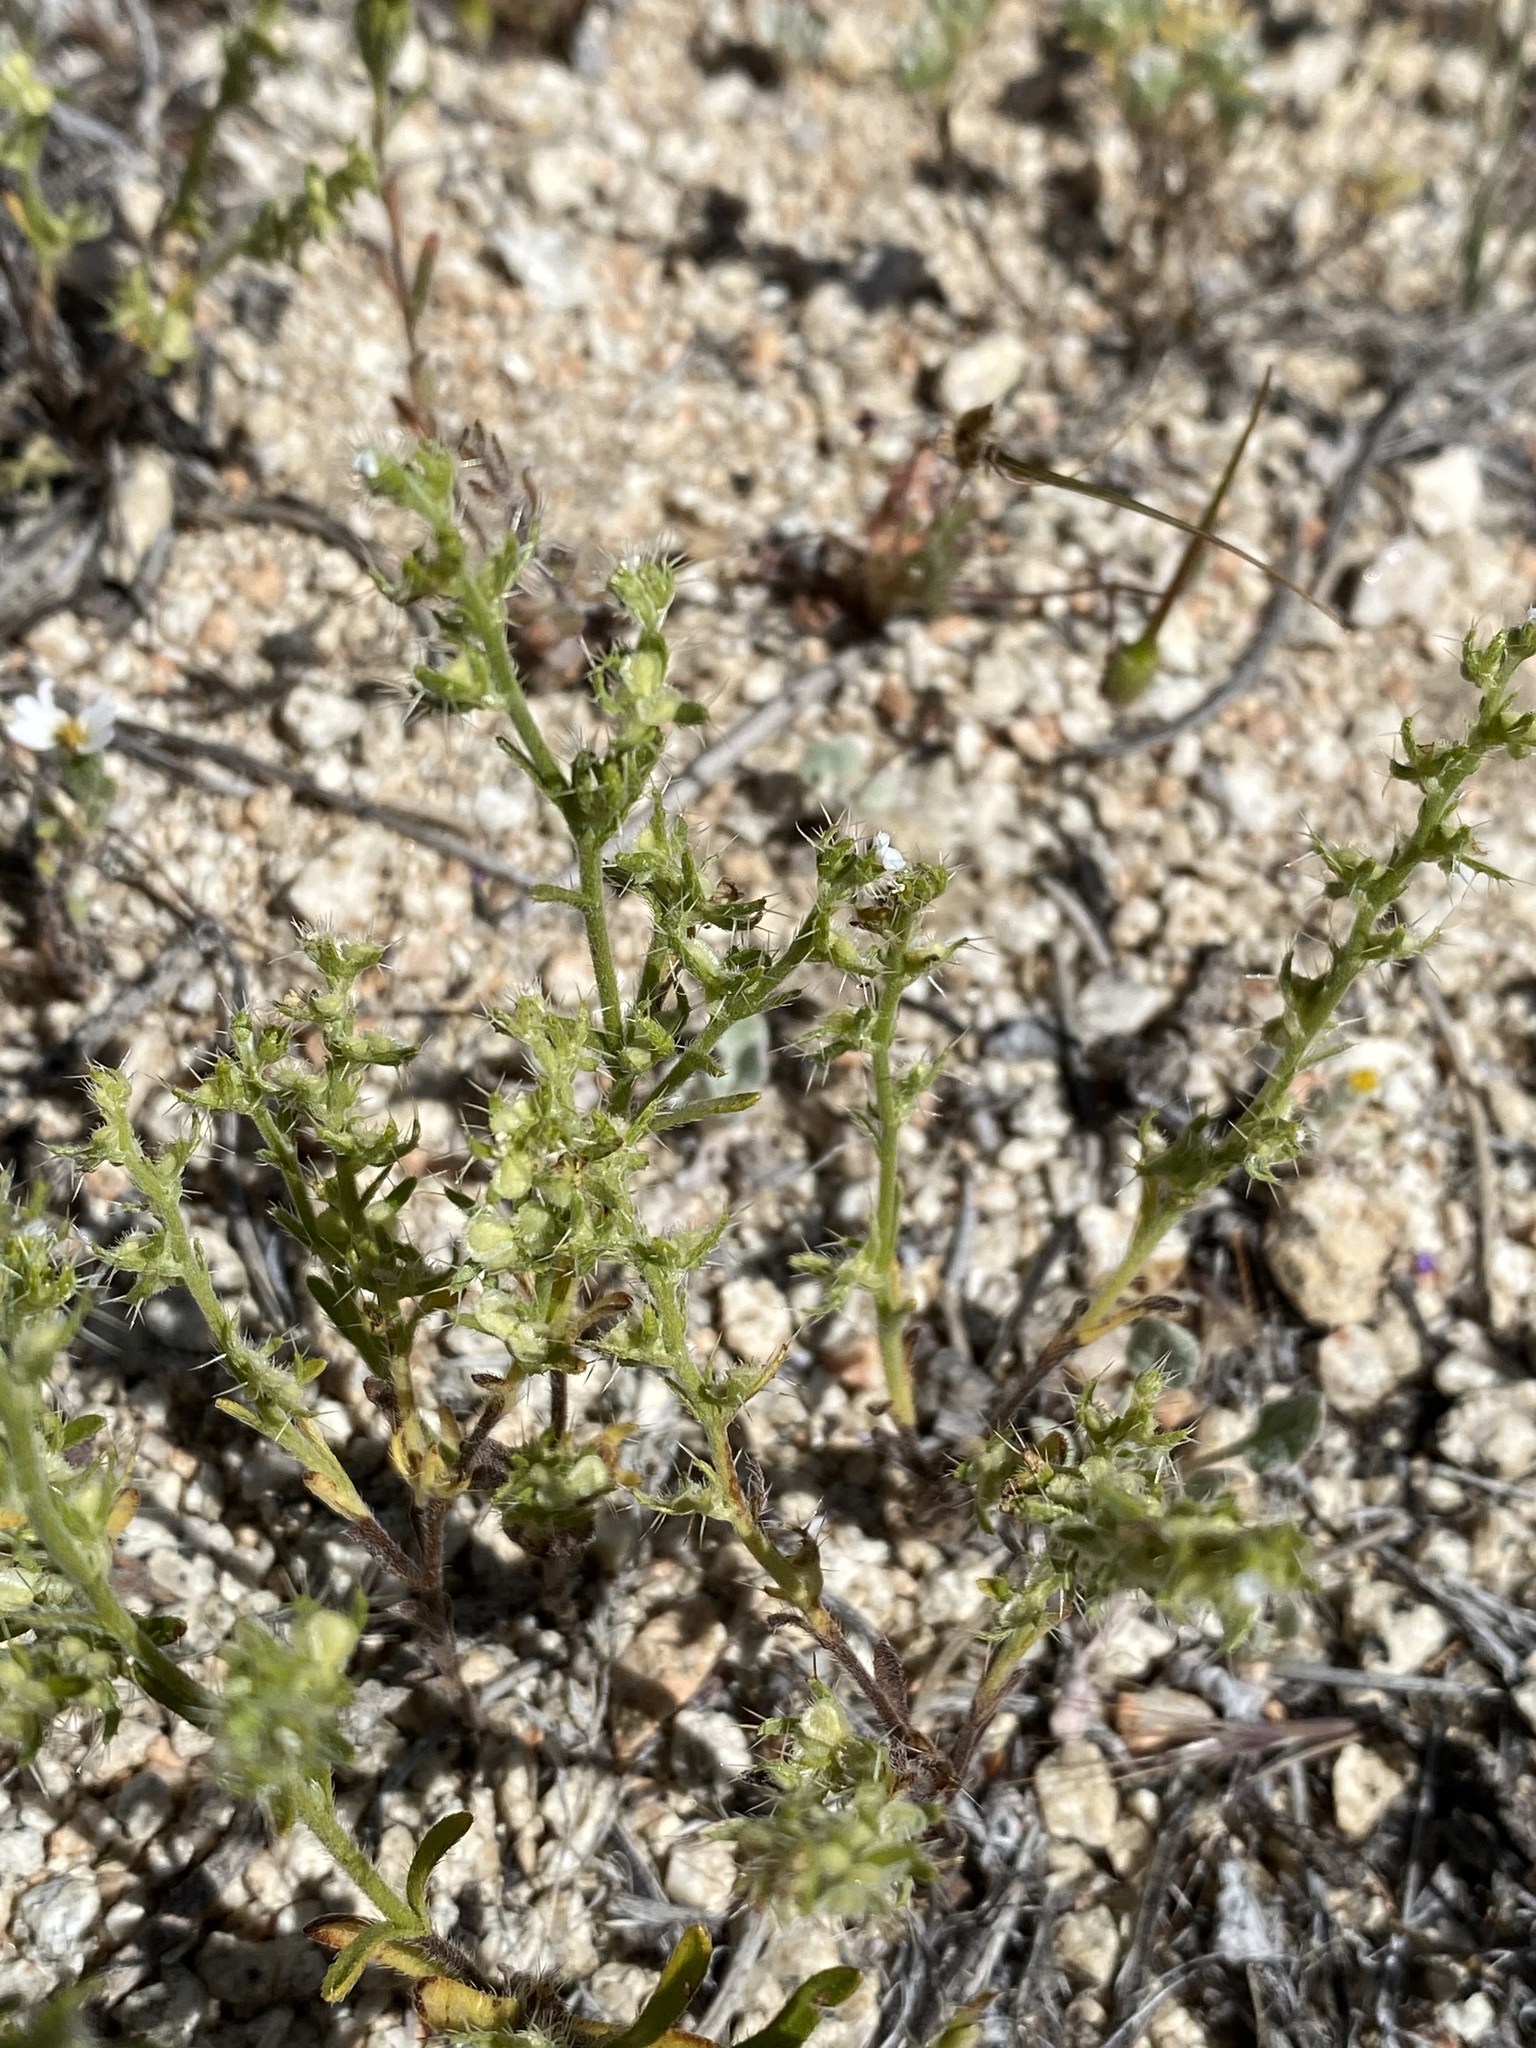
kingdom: Plantae
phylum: Tracheophyta
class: Magnoliopsida
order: Boraginales
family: Boraginaceae
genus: Pectocarya
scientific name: Pectocarya setosa
